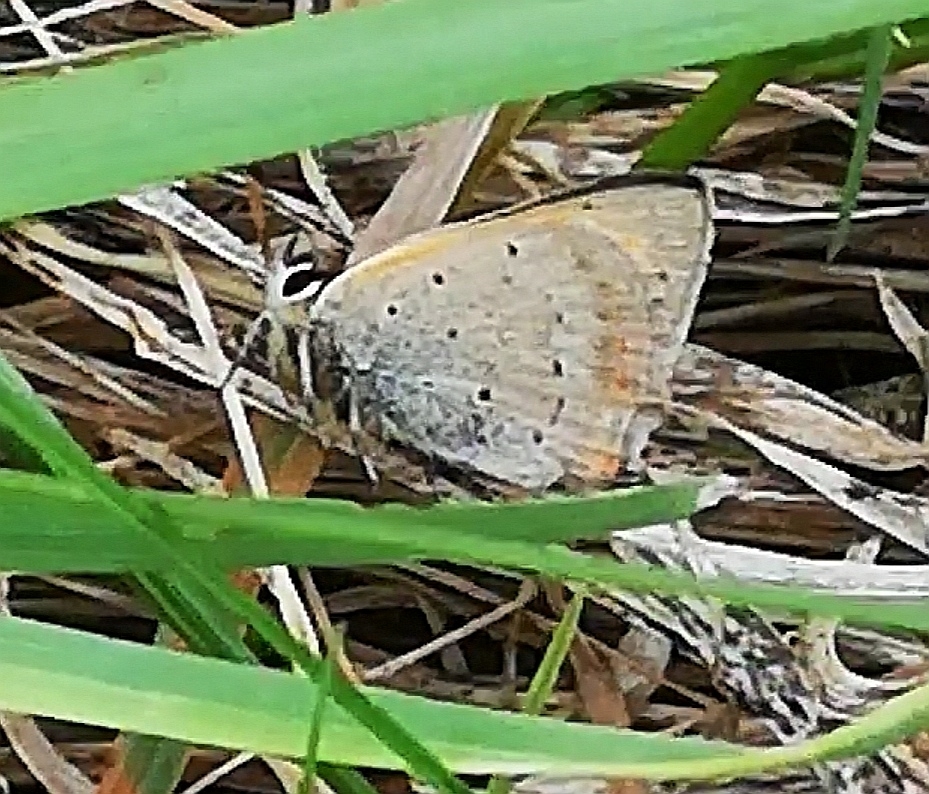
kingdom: Animalia
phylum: Arthropoda
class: Insecta
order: Lepidoptera
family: Lycaenidae
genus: Lycaena
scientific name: Lycaena phlaeas
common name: Small copper
